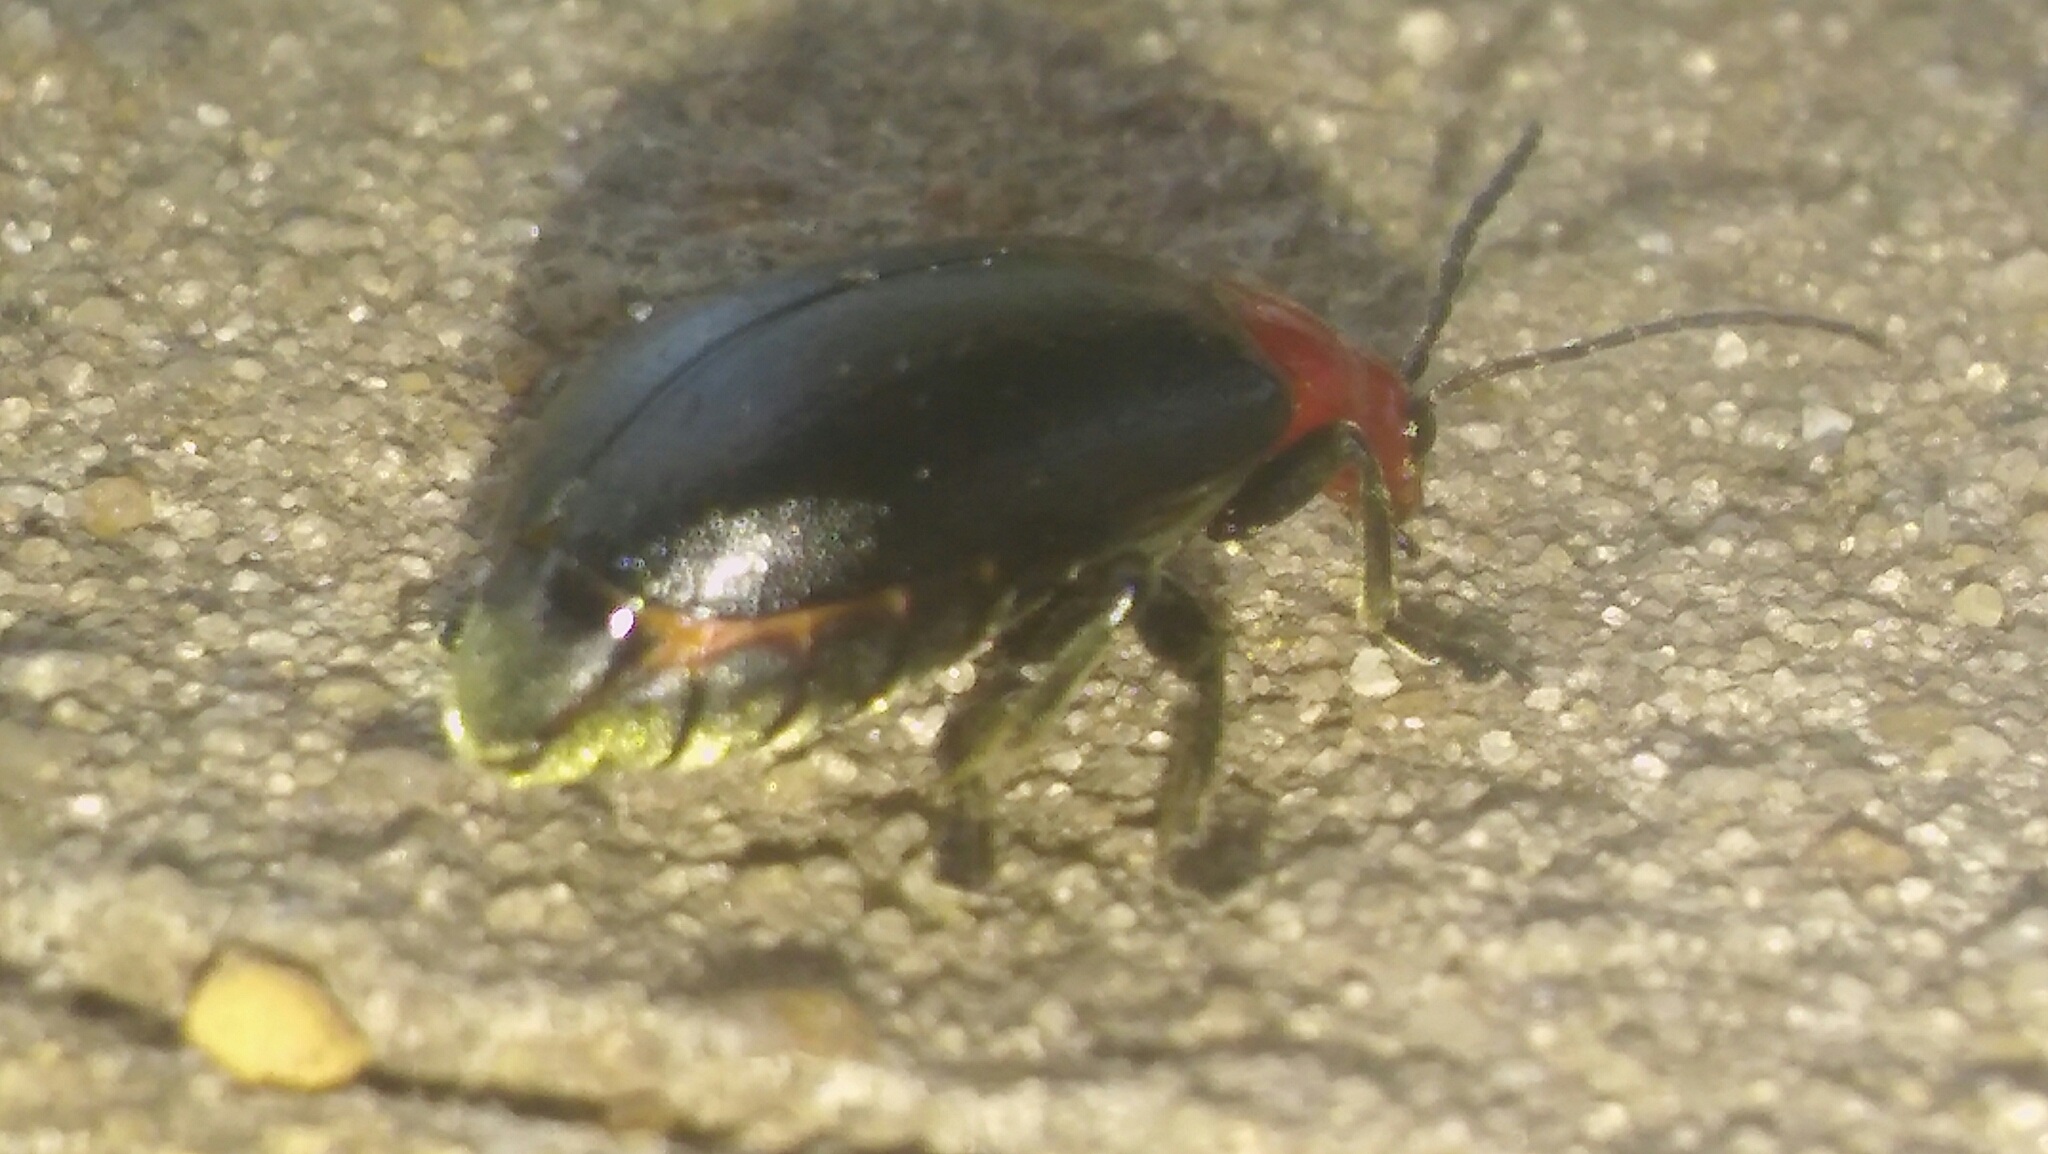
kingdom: Animalia
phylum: Arthropoda
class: Insecta
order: Coleoptera
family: Chrysomelidae
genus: Cacoscelis
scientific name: Cacoscelis
